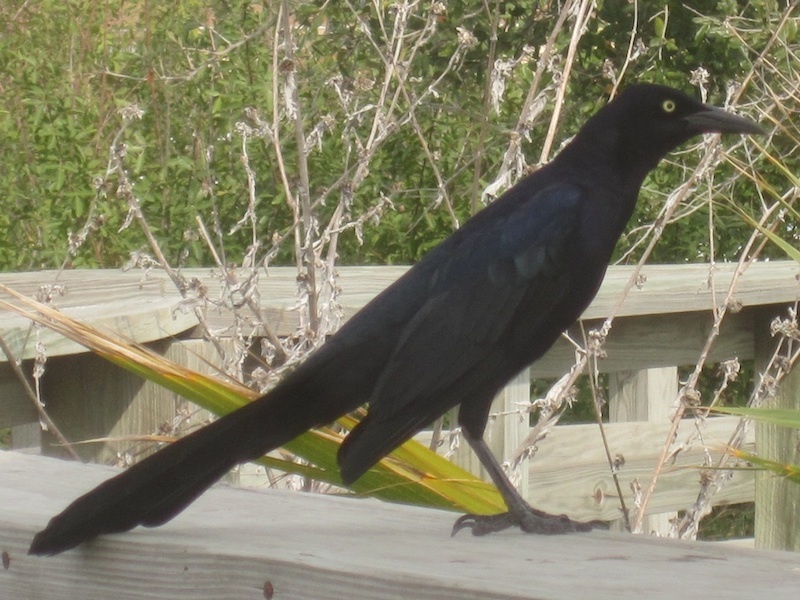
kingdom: Animalia
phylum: Chordata
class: Aves
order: Passeriformes
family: Icteridae
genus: Quiscalus
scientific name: Quiscalus mexicanus
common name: Great-tailed grackle
